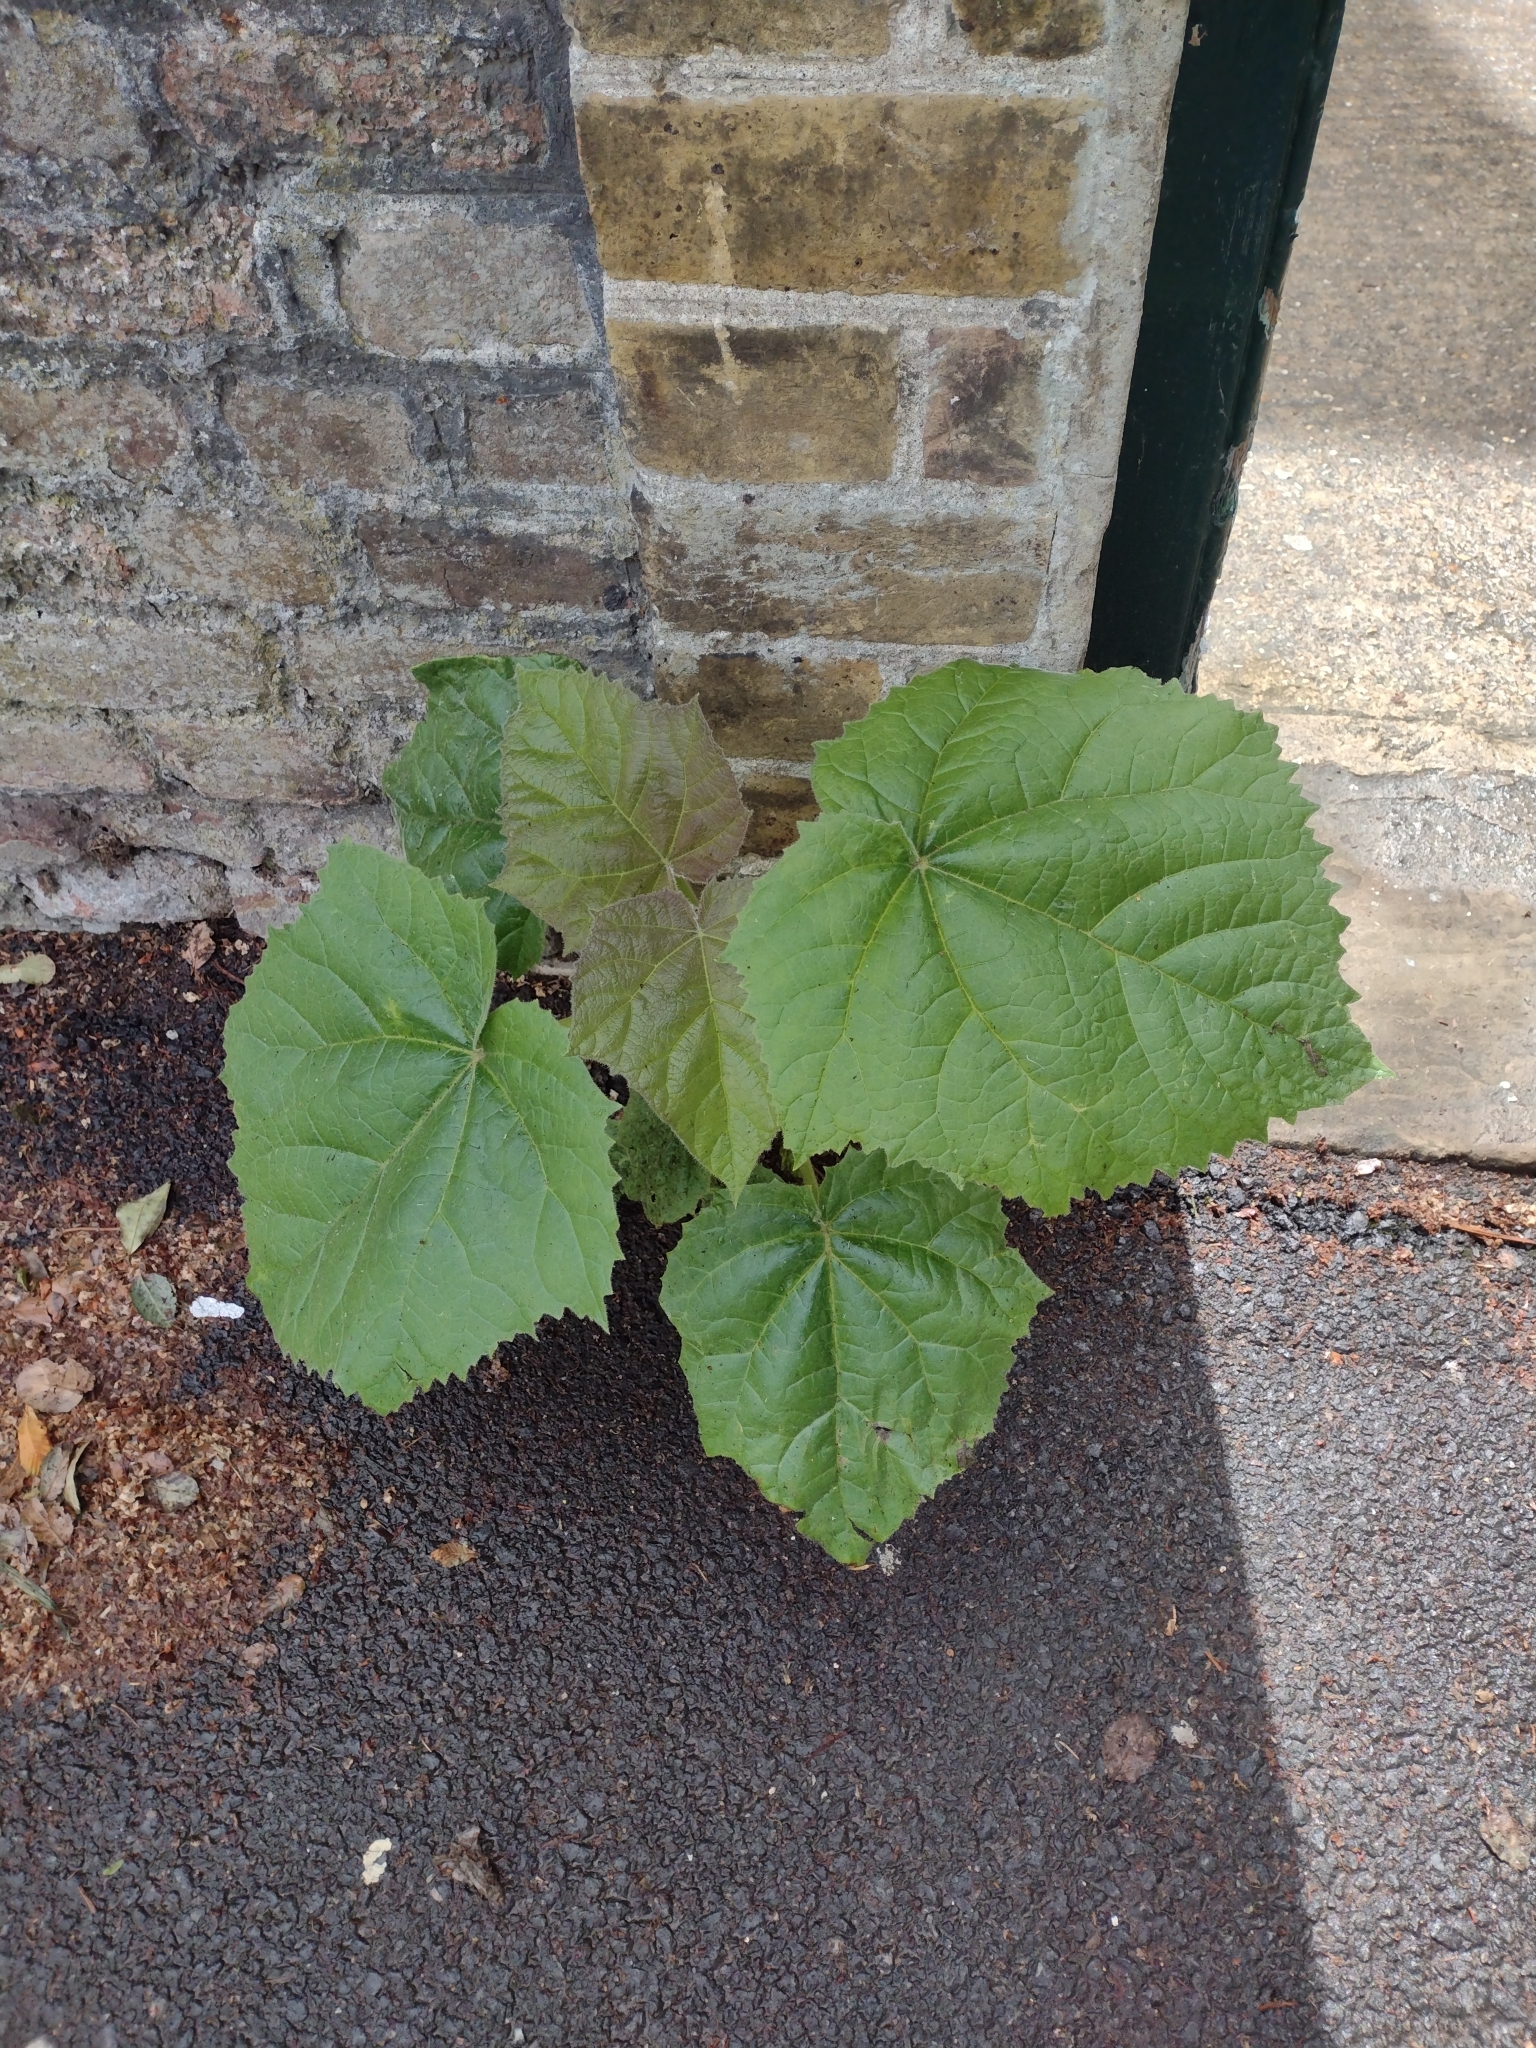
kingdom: Plantae
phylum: Tracheophyta
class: Magnoliopsida
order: Lamiales
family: Paulowniaceae
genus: Paulownia
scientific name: Paulownia tomentosa
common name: Foxglove-tree
